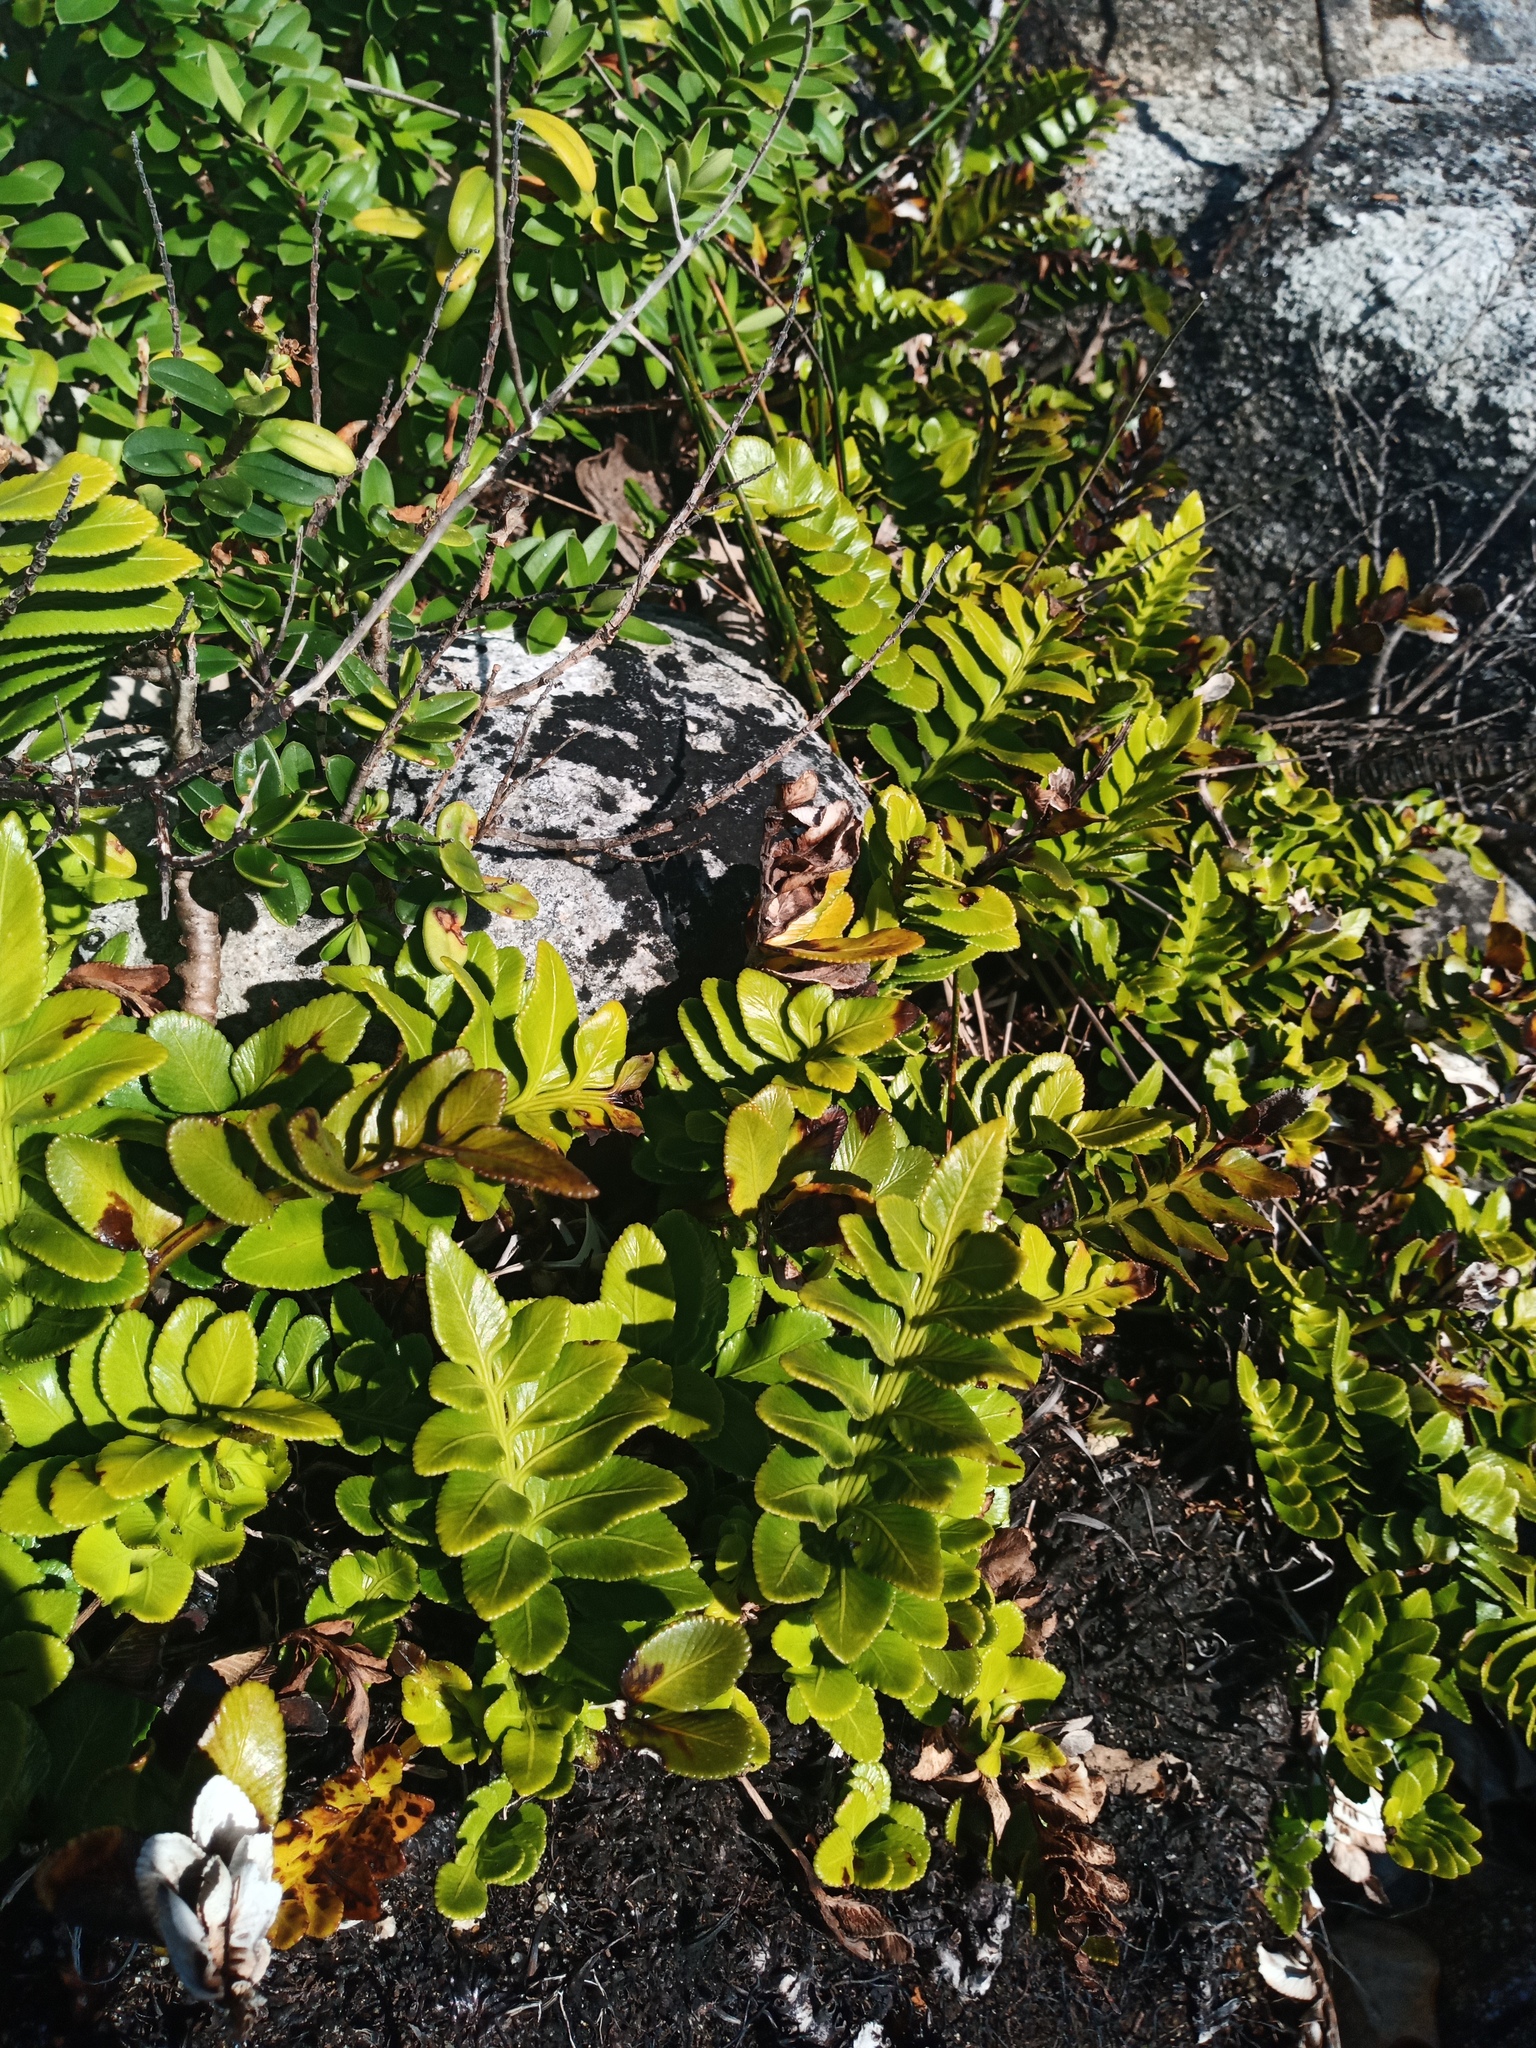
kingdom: Plantae
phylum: Tracheophyta
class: Polypodiopsida
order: Polypodiales
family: Aspleniaceae
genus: Asplenium
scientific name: Asplenium obtusatum
